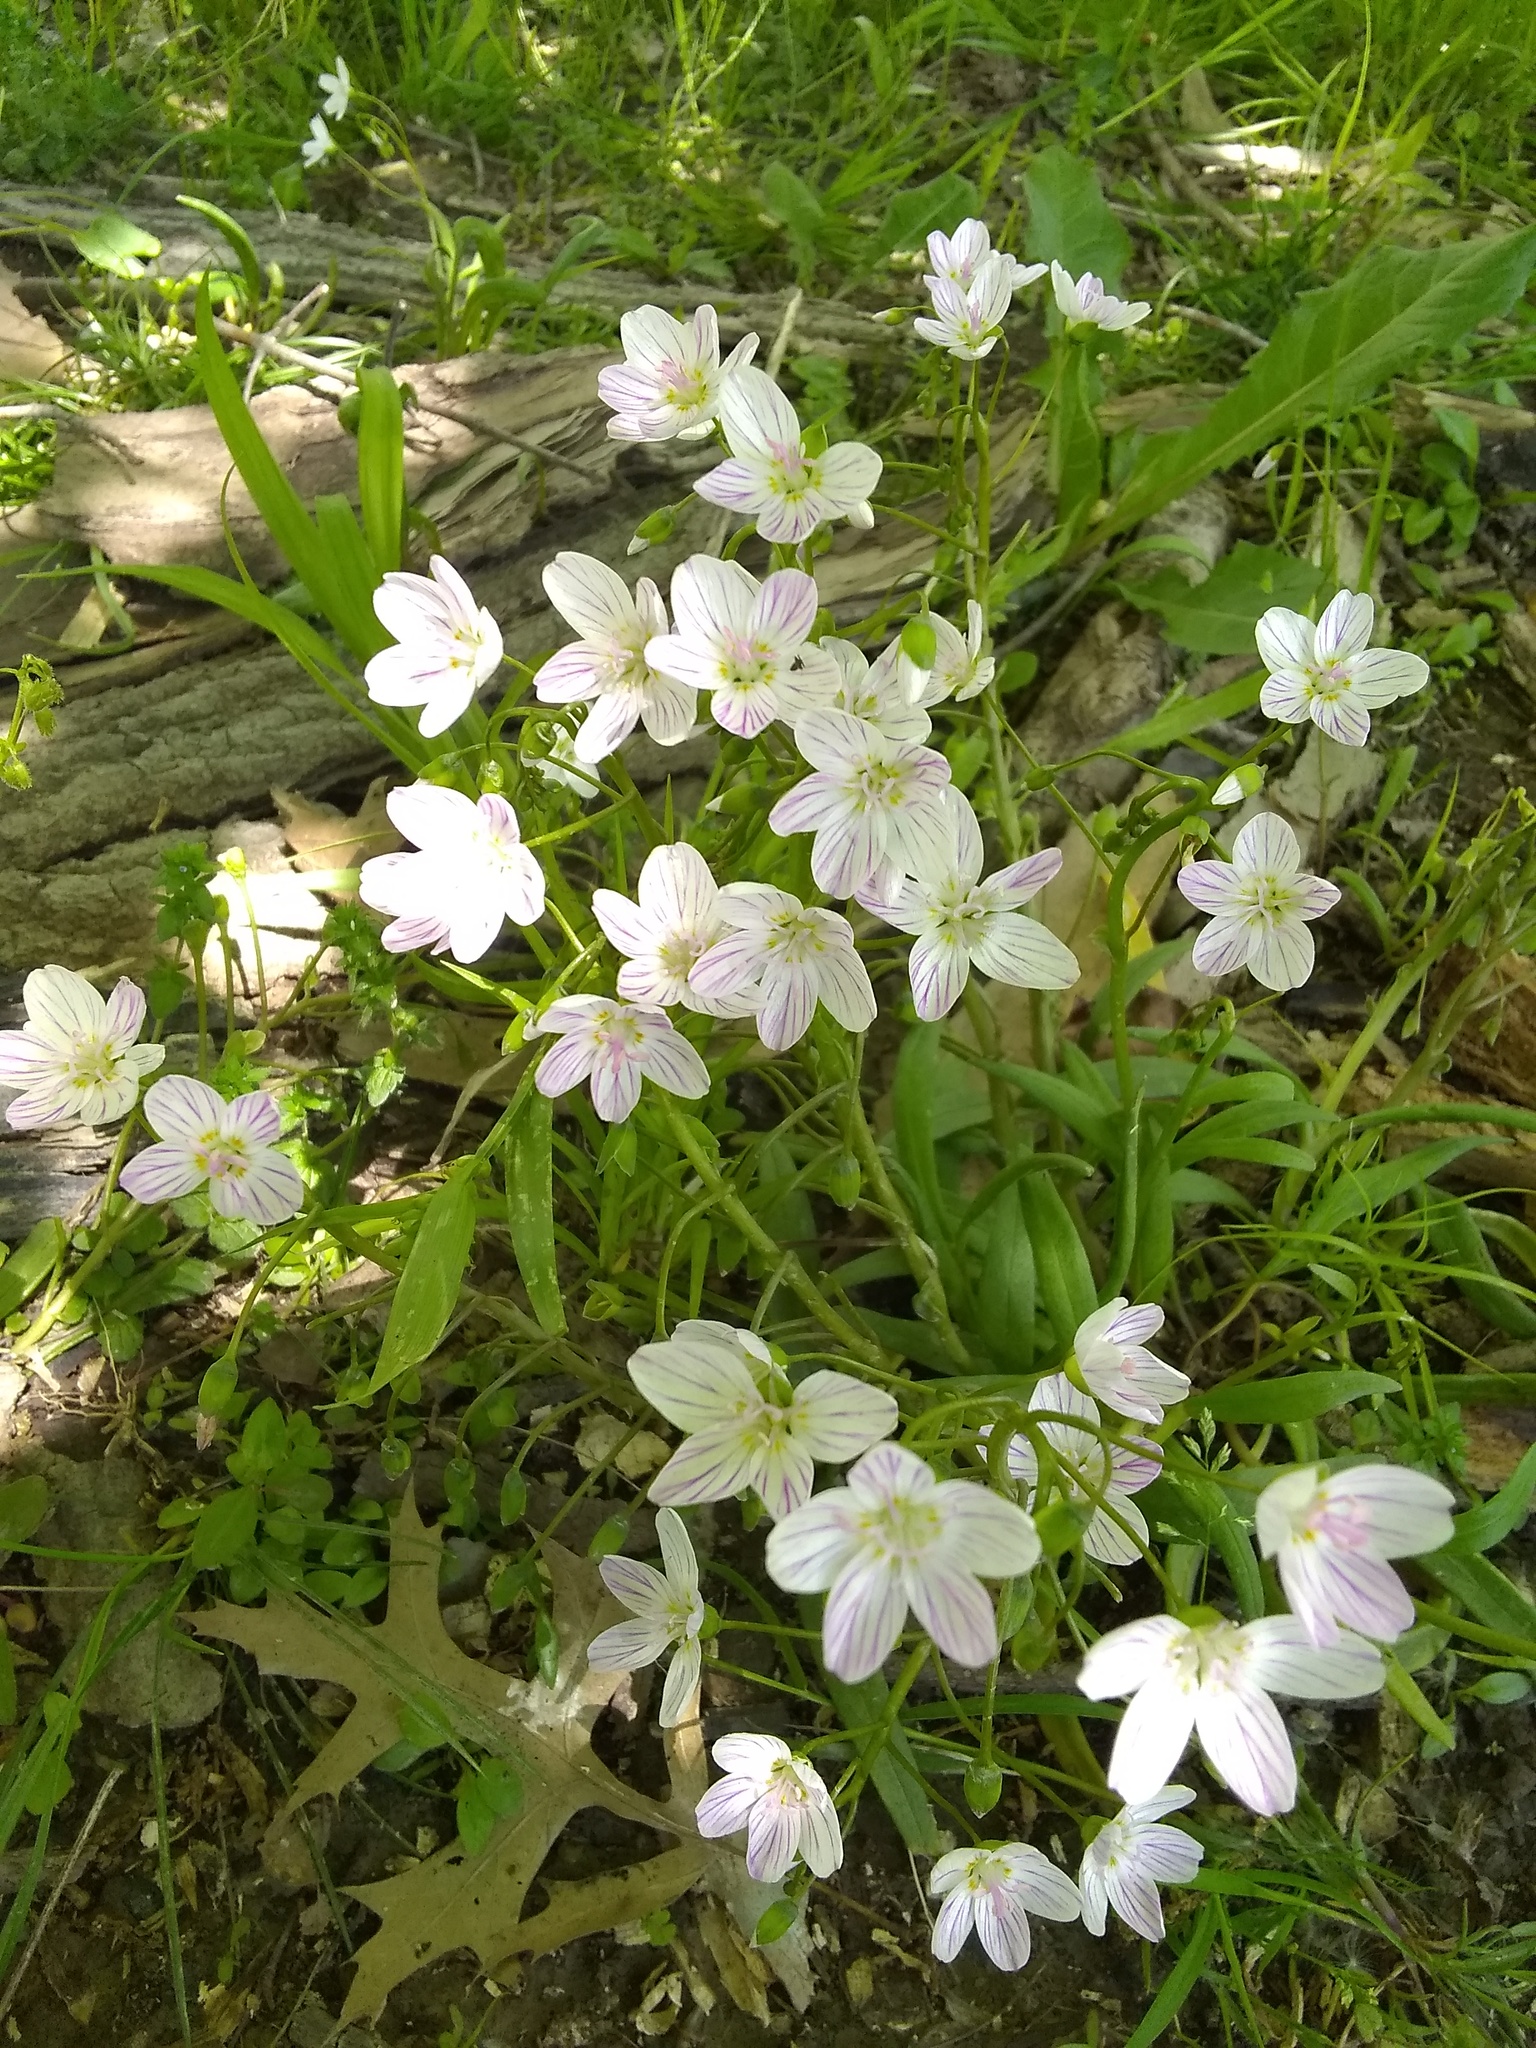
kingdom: Plantae
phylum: Tracheophyta
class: Magnoliopsida
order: Caryophyllales
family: Montiaceae
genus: Claytonia
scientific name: Claytonia virginica
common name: Virginia springbeauty
